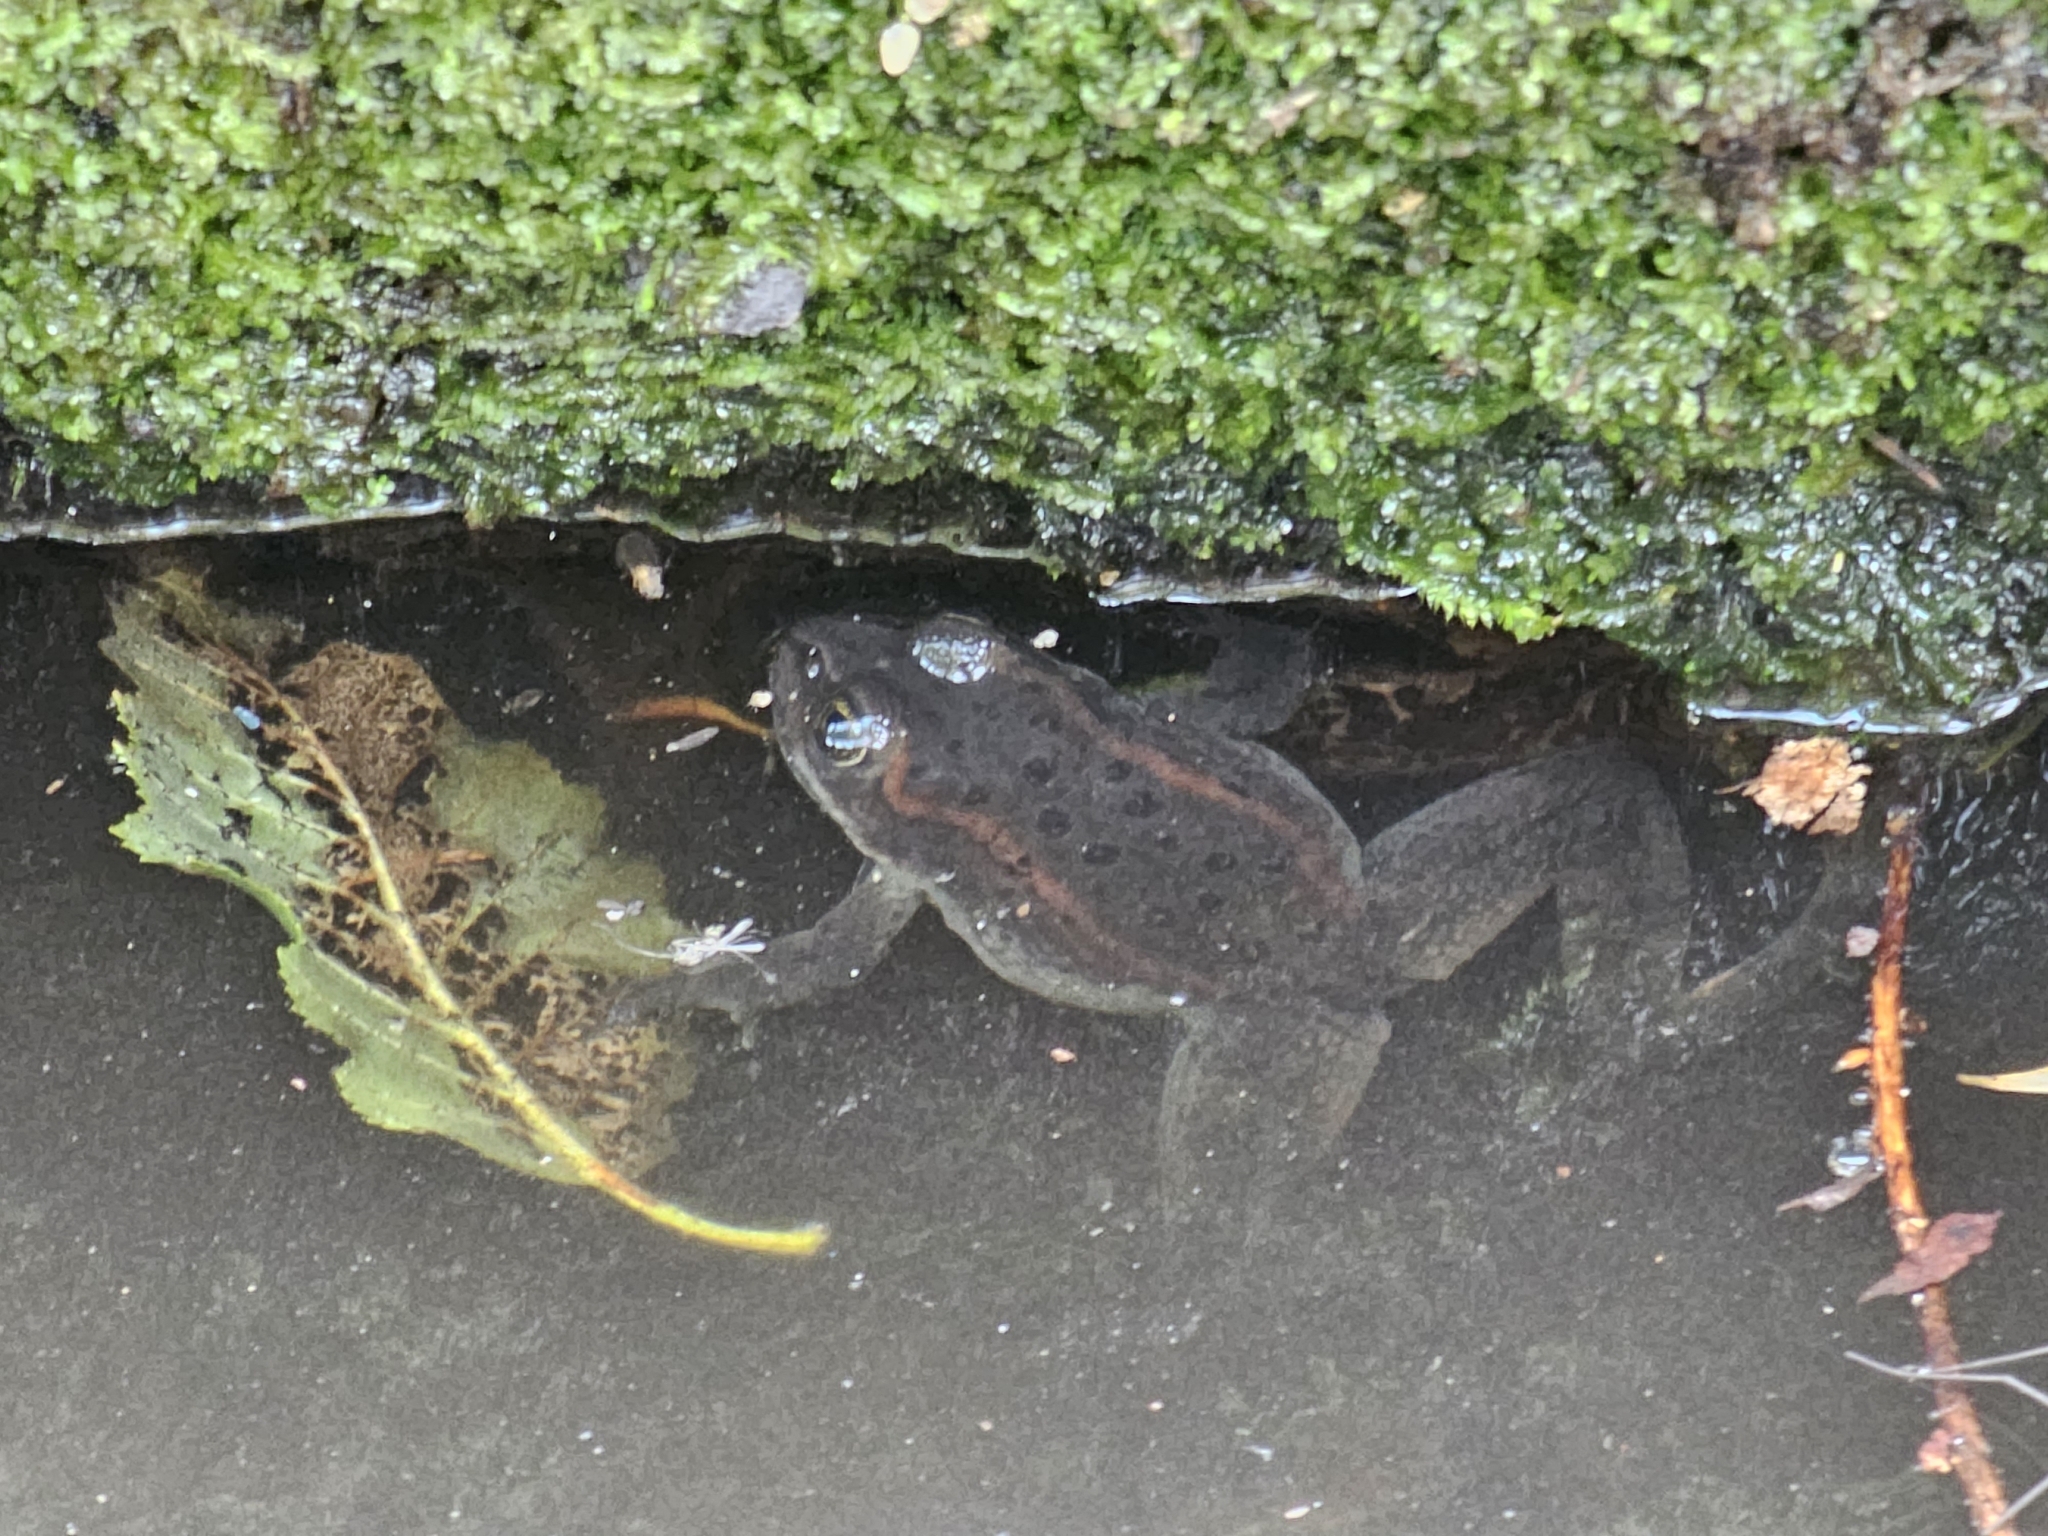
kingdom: Animalia
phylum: Chordata
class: Amphibia
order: Anura
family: Ranidae
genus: Rana
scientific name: Rana luteiventris
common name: Columbia spotted frog
